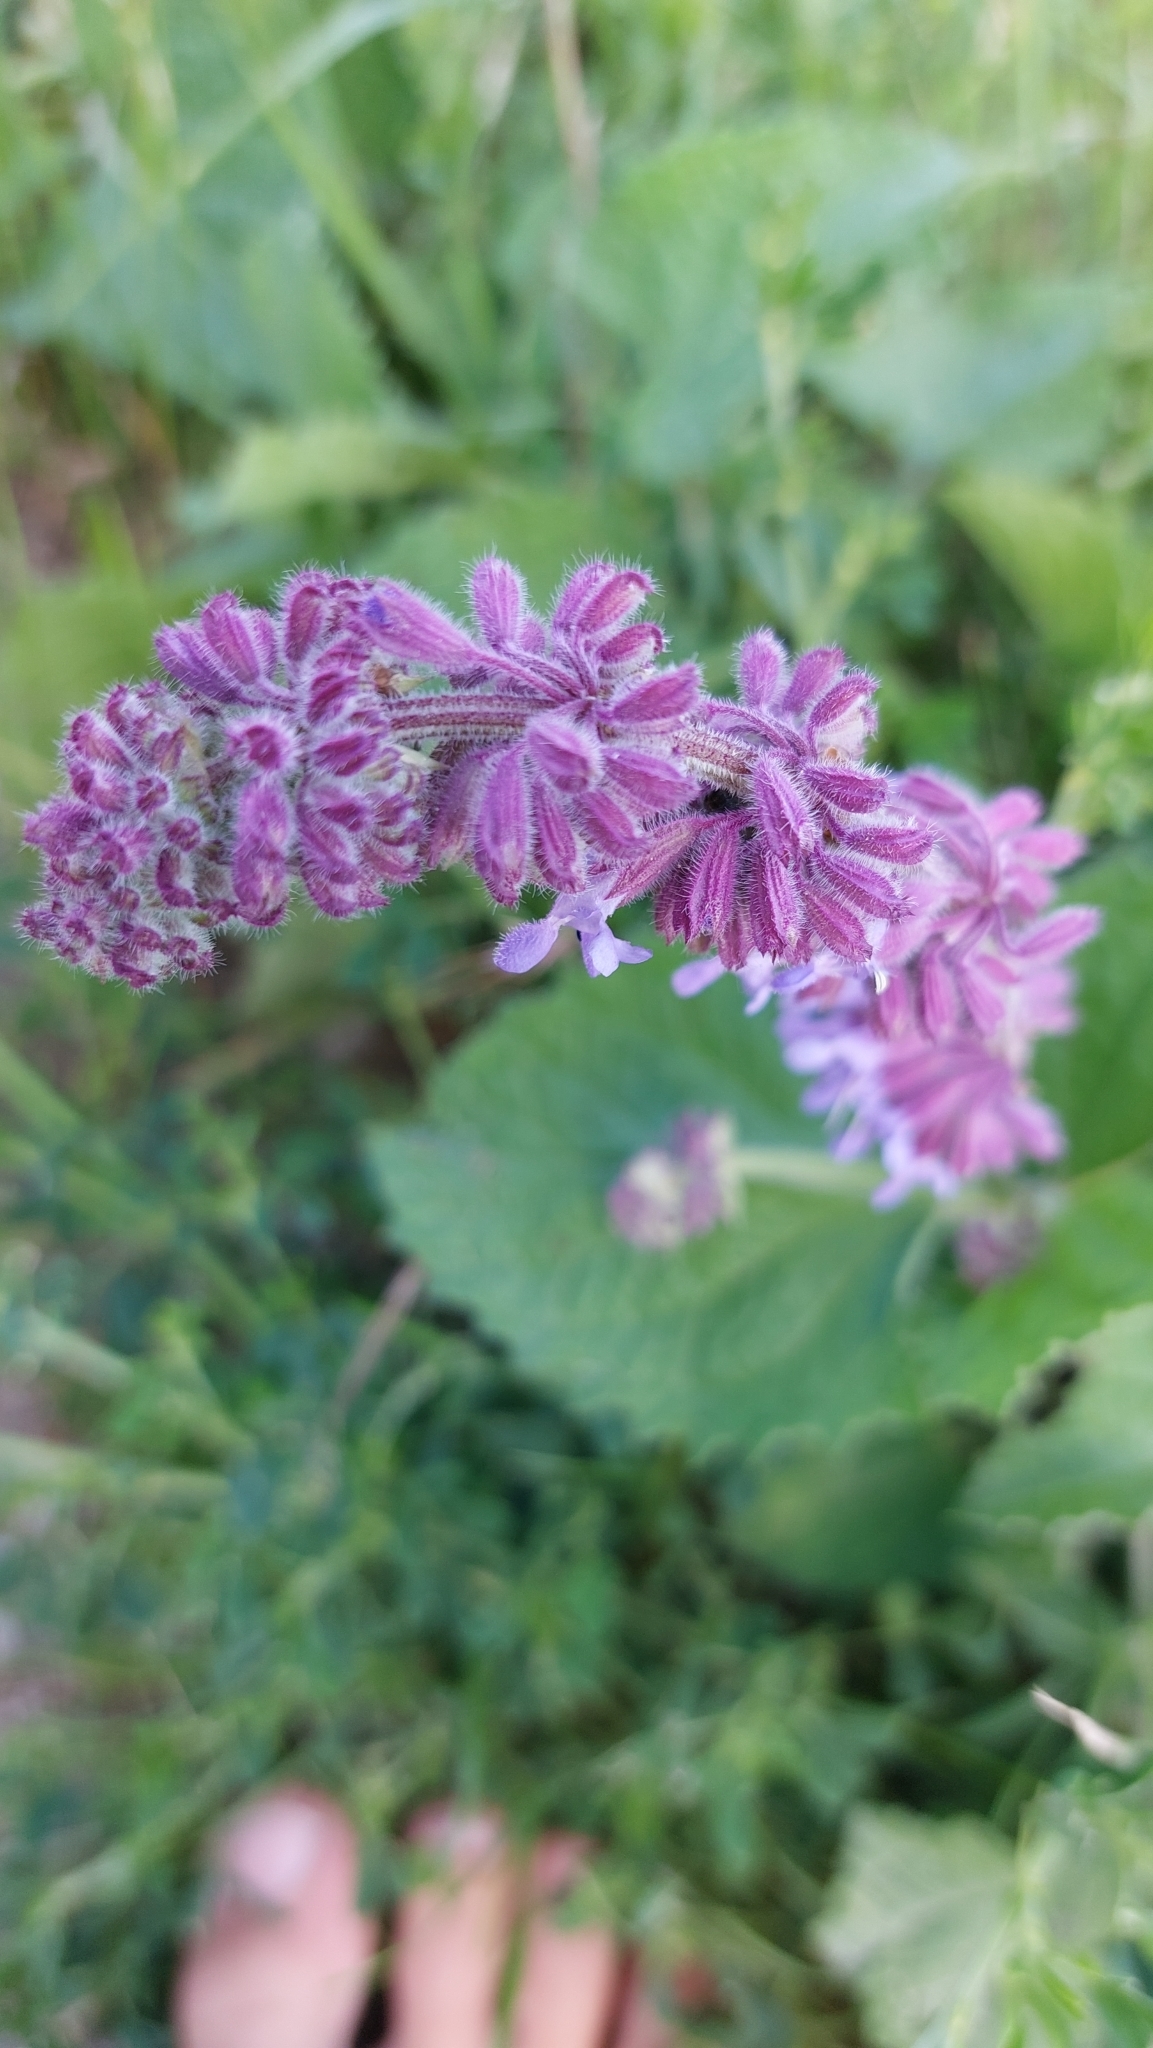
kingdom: Plantae
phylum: Tracheophyta
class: Magnoliopsida
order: Lamiales
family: Lamiaceae
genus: Salvia
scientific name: Salvia verticillata
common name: Whorled clary
